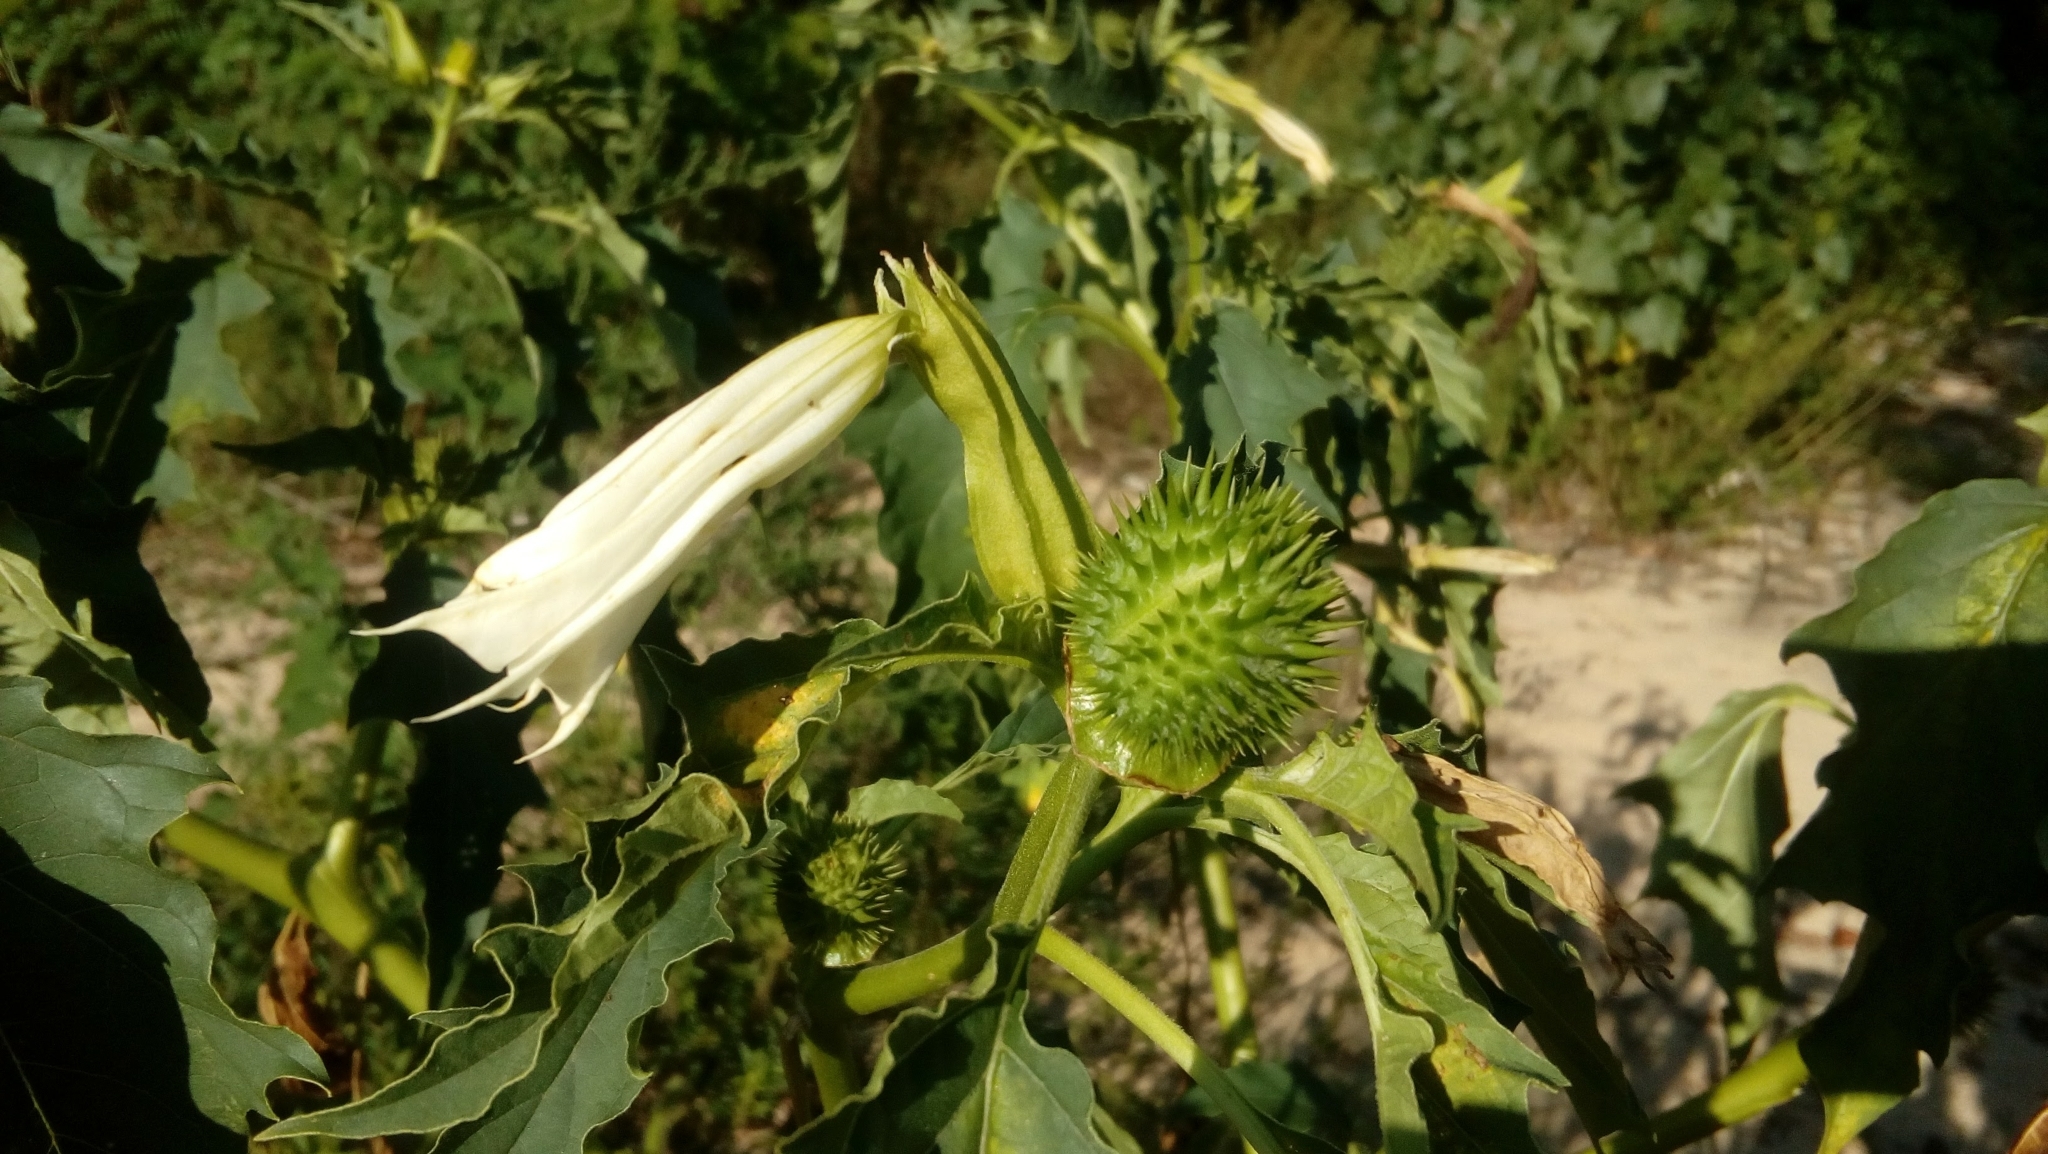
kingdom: Plantae
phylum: Tracheophyta
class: Magnoliopsida
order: Solanales
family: Solanaceae
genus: Datura
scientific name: Datura stramonium
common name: Thorn-apple
